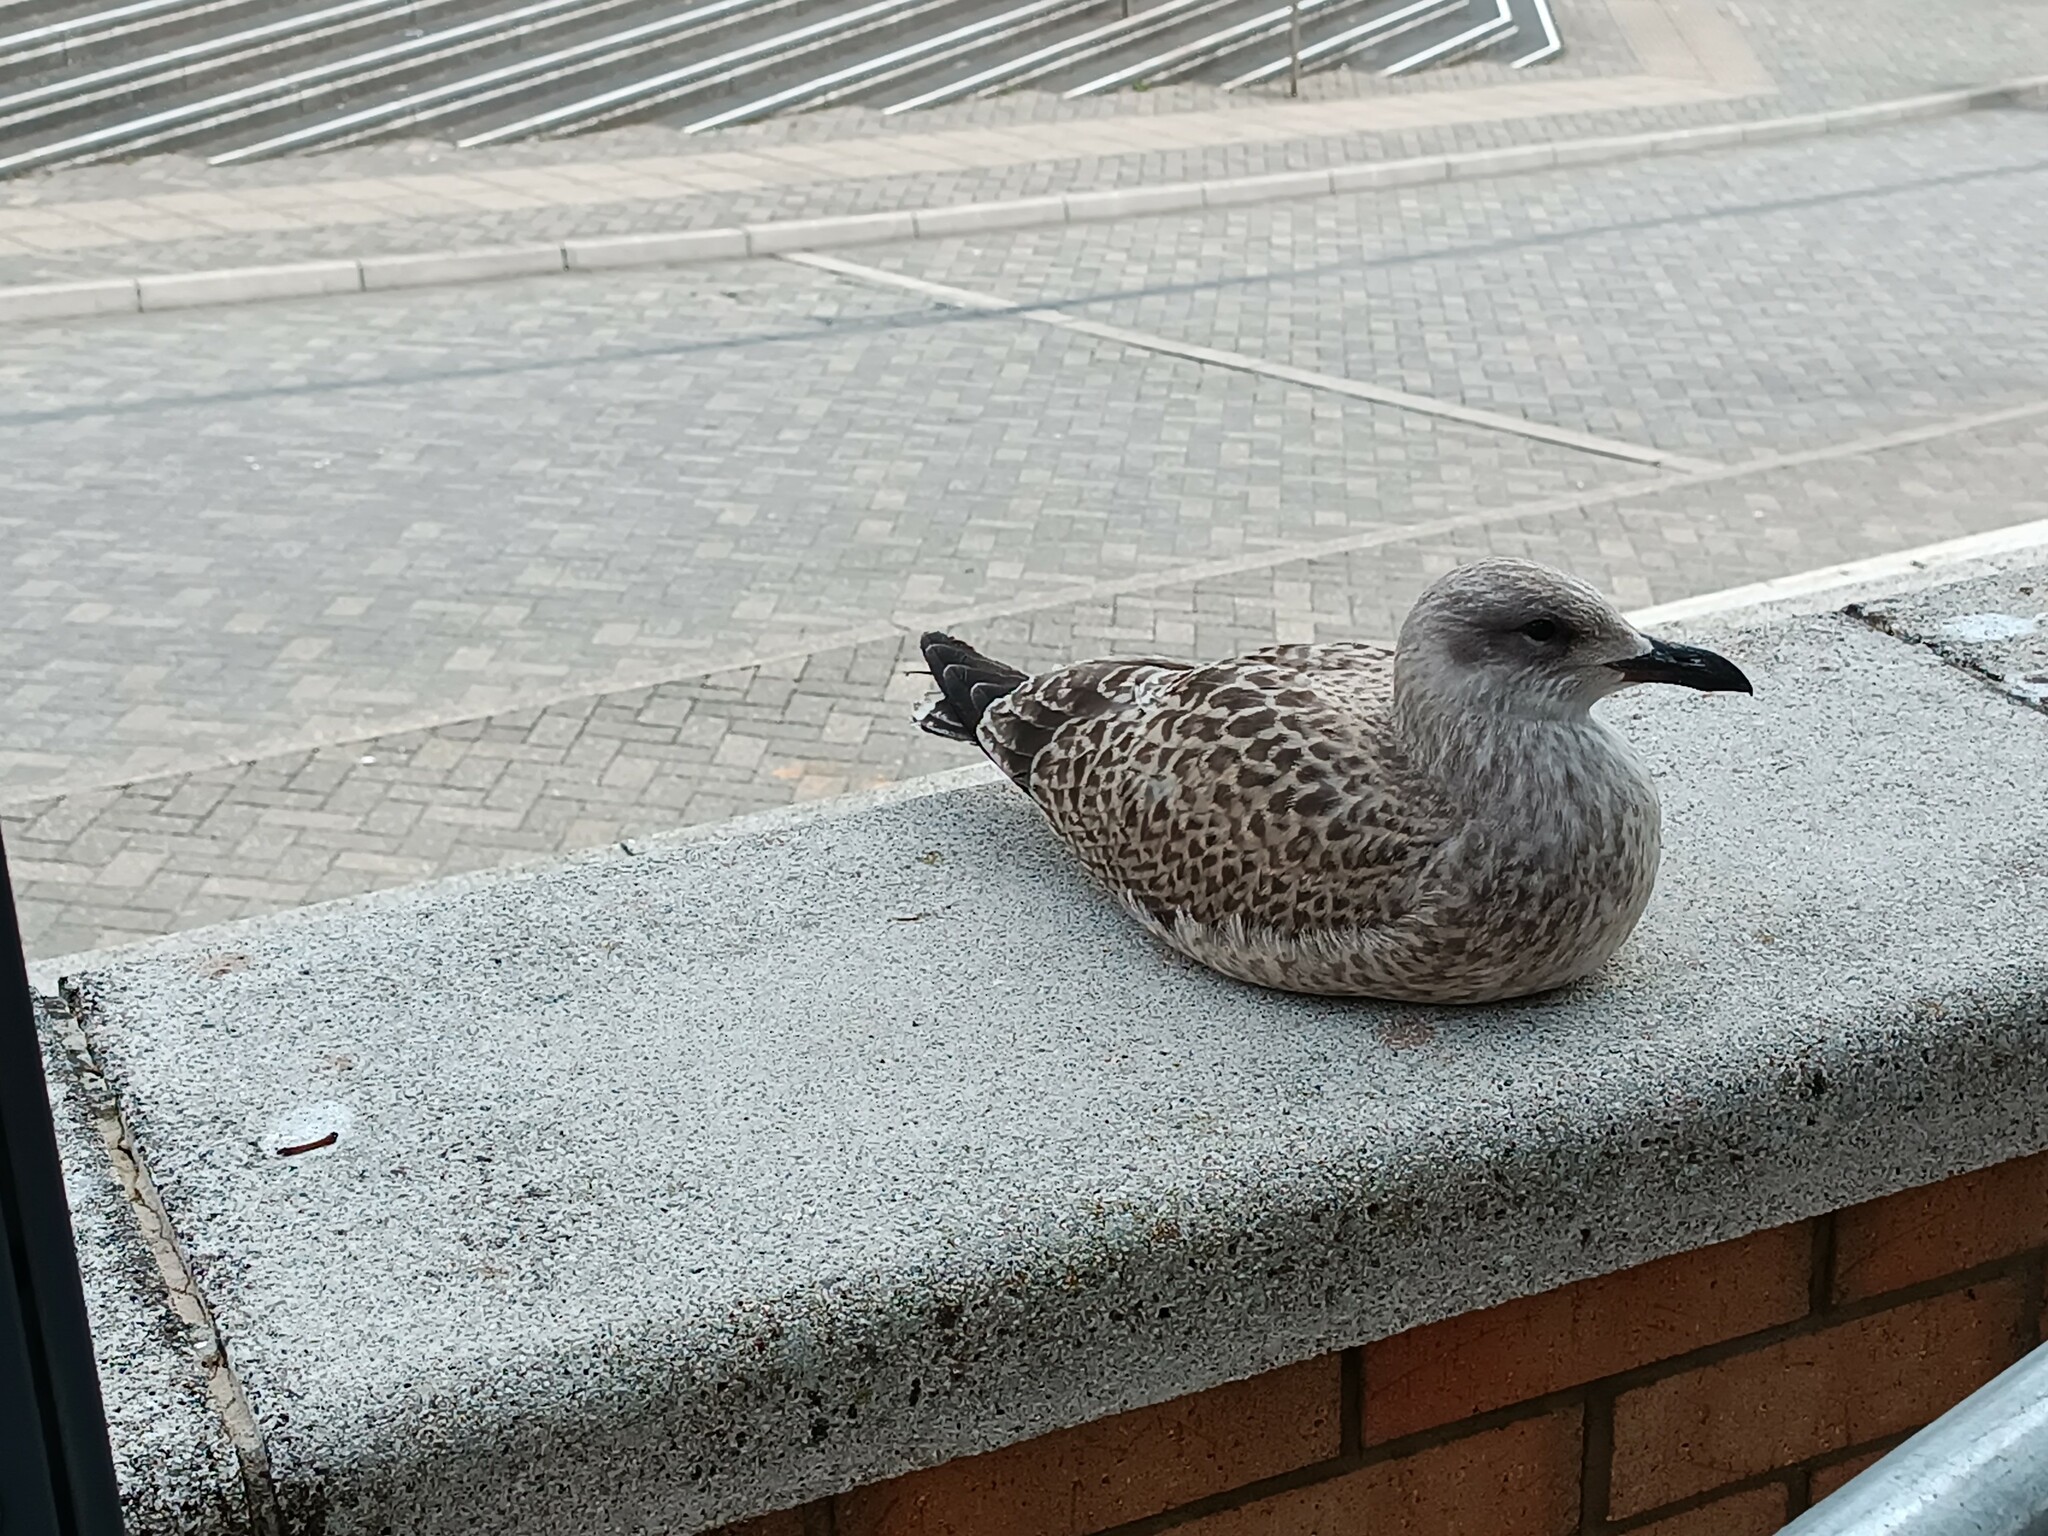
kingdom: Animalia
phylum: Chordata
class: Aves
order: Charadriiformes
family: Laridae
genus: Larus
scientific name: Larus argentatus
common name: Herring gull
